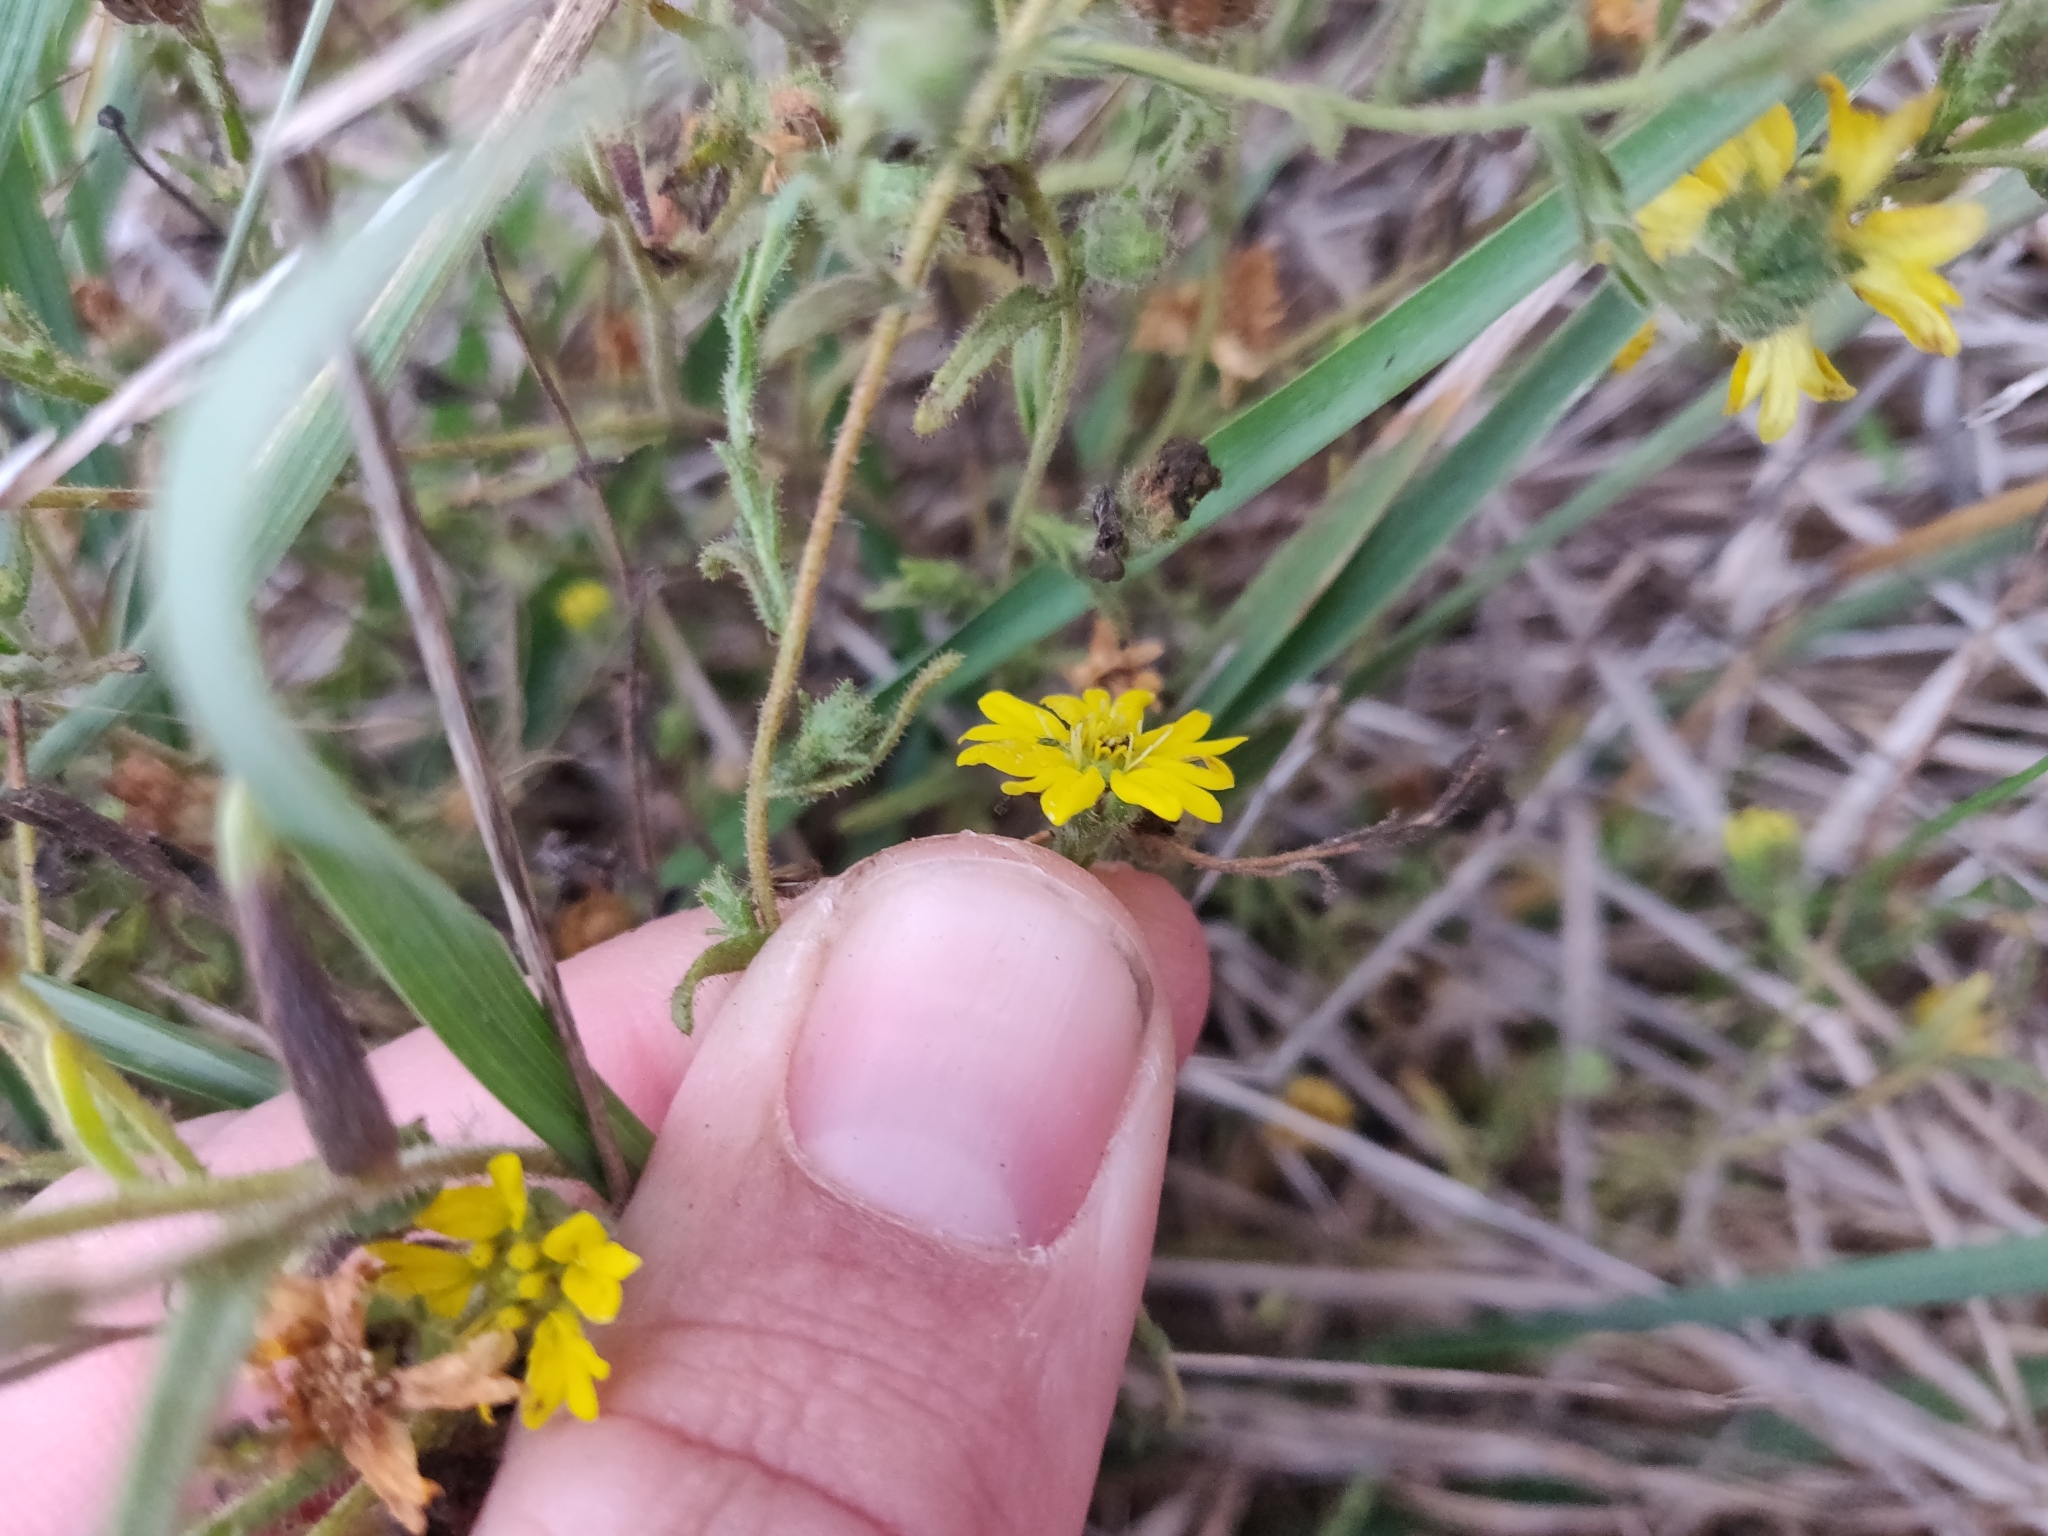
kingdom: Plantae
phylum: Tracheophyta
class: Magnoliopsida
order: Asterales
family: Asteraceae
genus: Deinandra
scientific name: Deinandra corymbosa
